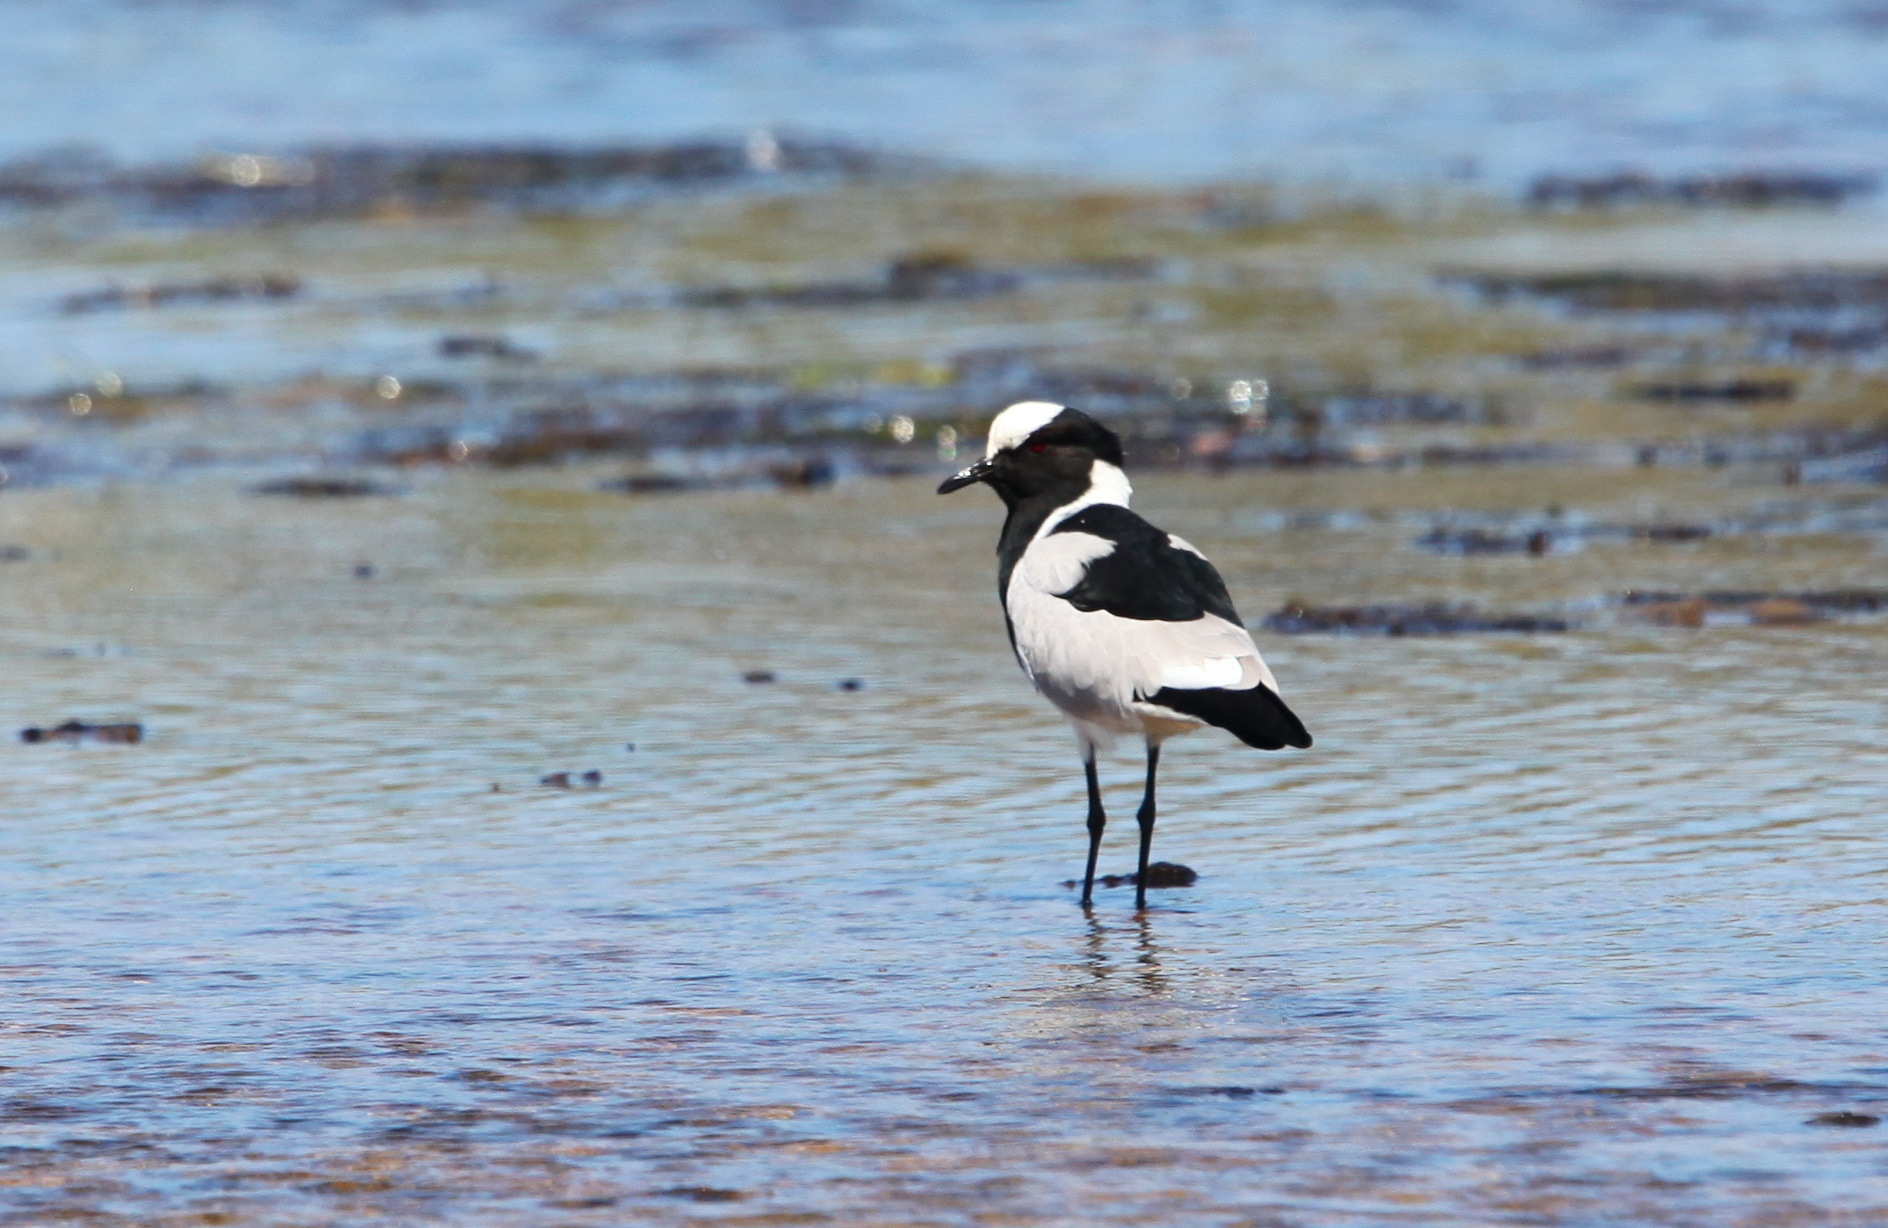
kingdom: Animalia
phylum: Chordata
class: Aves
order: Charadriiformes
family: Charadriidae
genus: Vanellus
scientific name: Vanellus armatus
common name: Blacksmith lapwing
